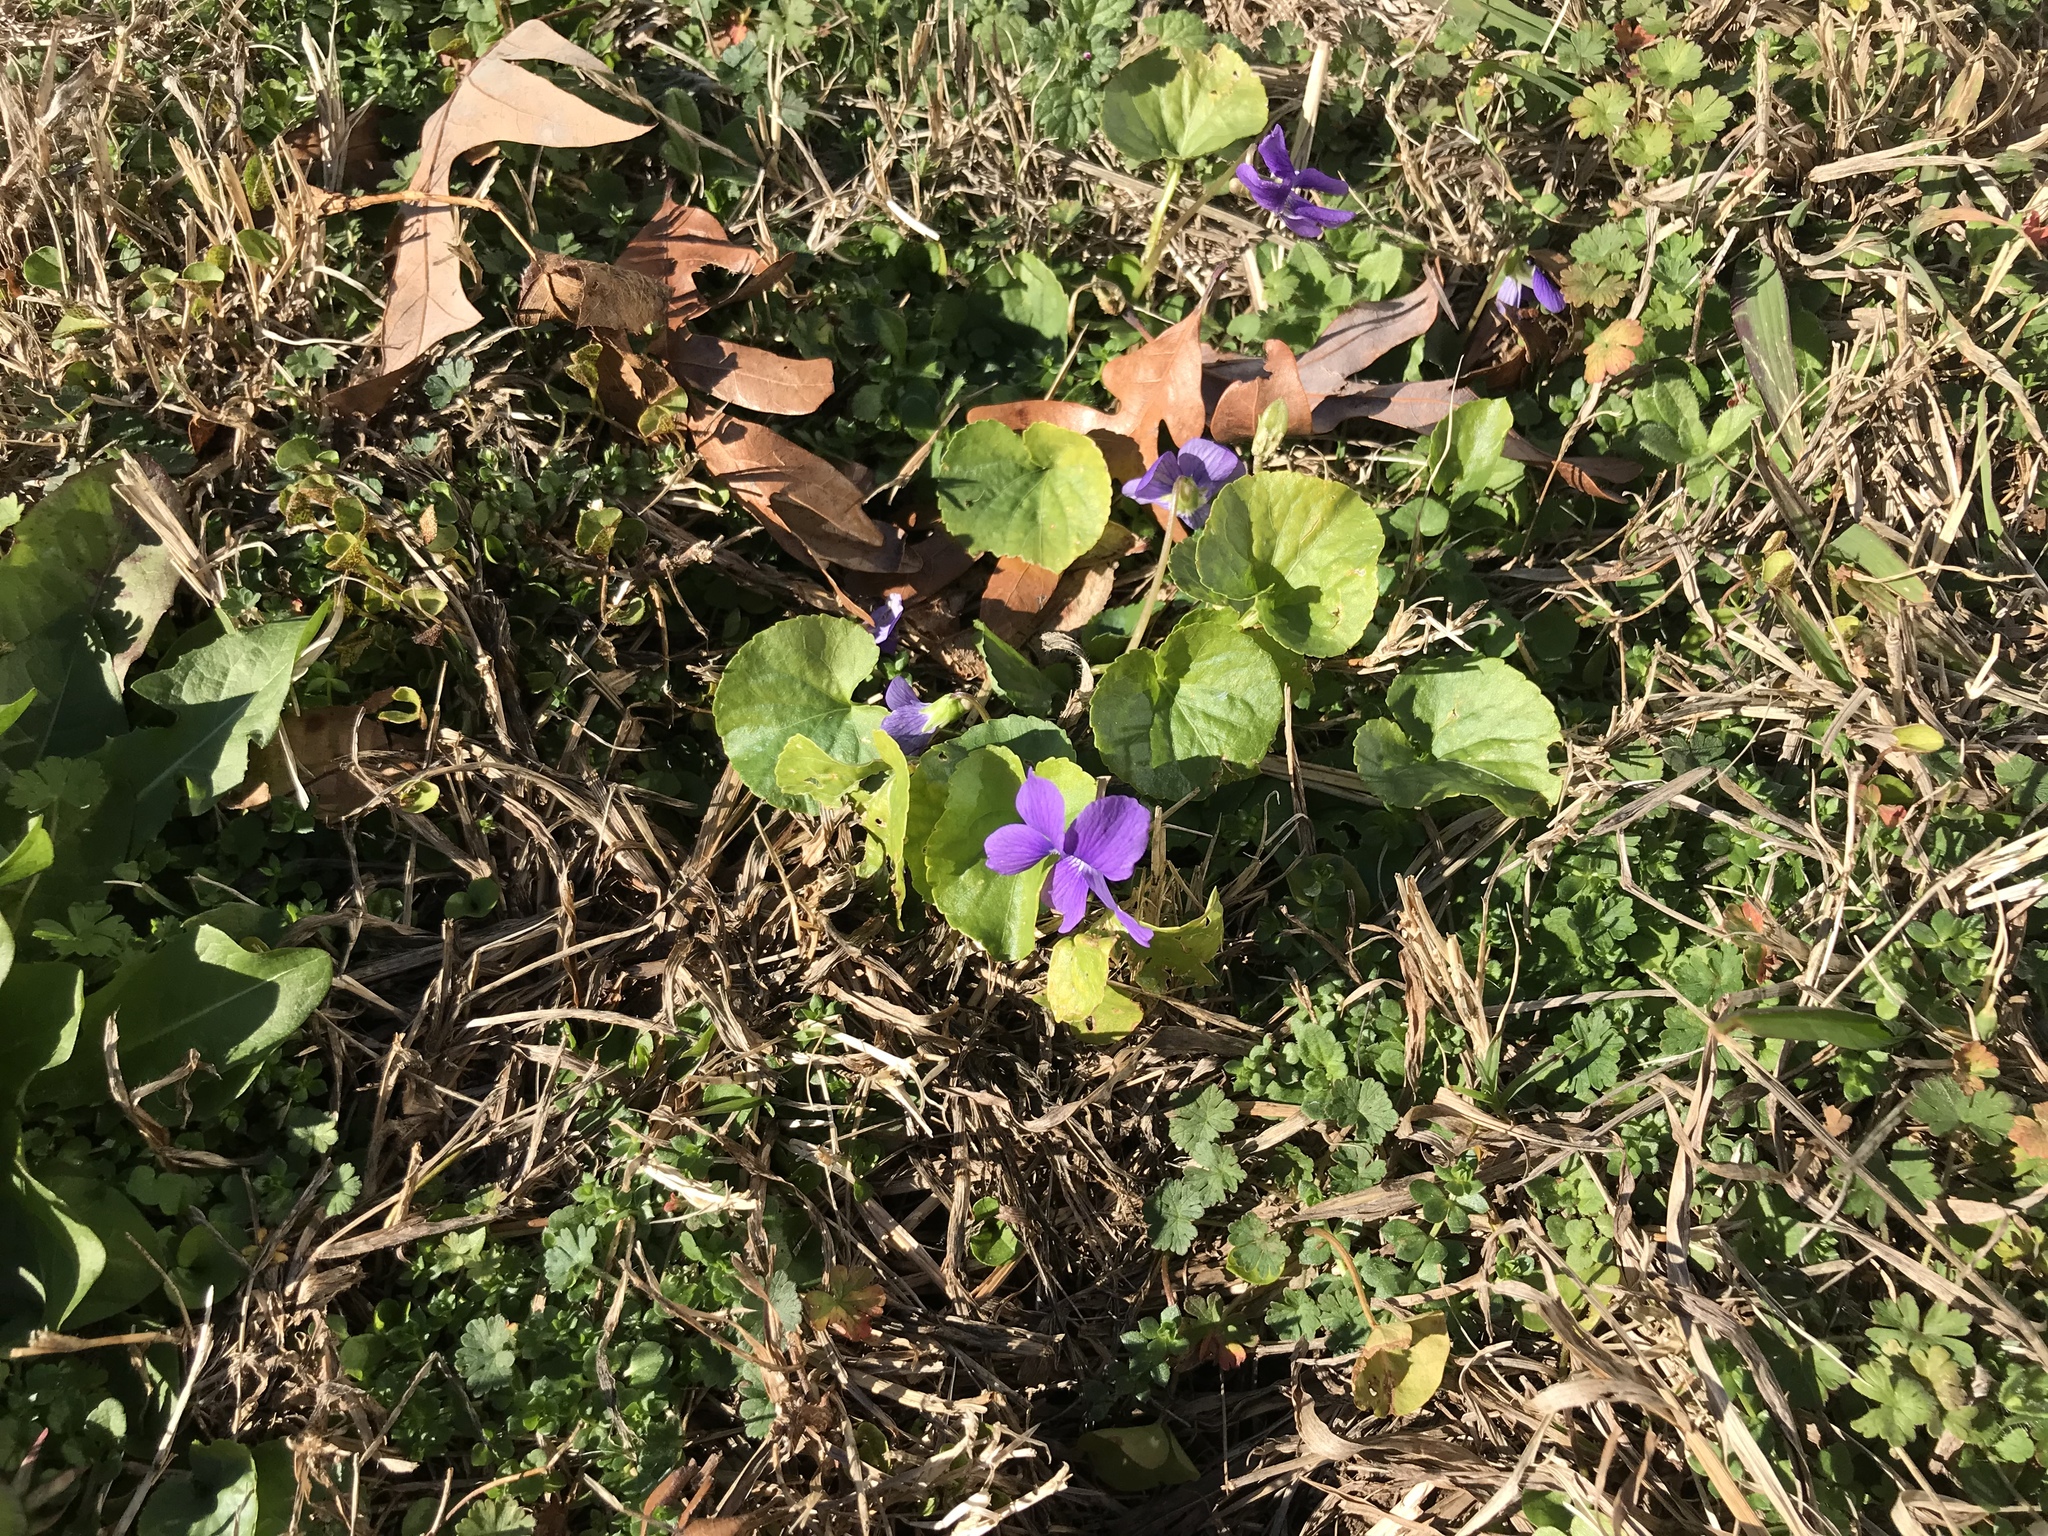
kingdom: Plantae
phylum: Tracheophyta
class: Magnoliopsida
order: Malpighiales
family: Violaceae
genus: Viola
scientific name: Viola sororia
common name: Dooryard violet
